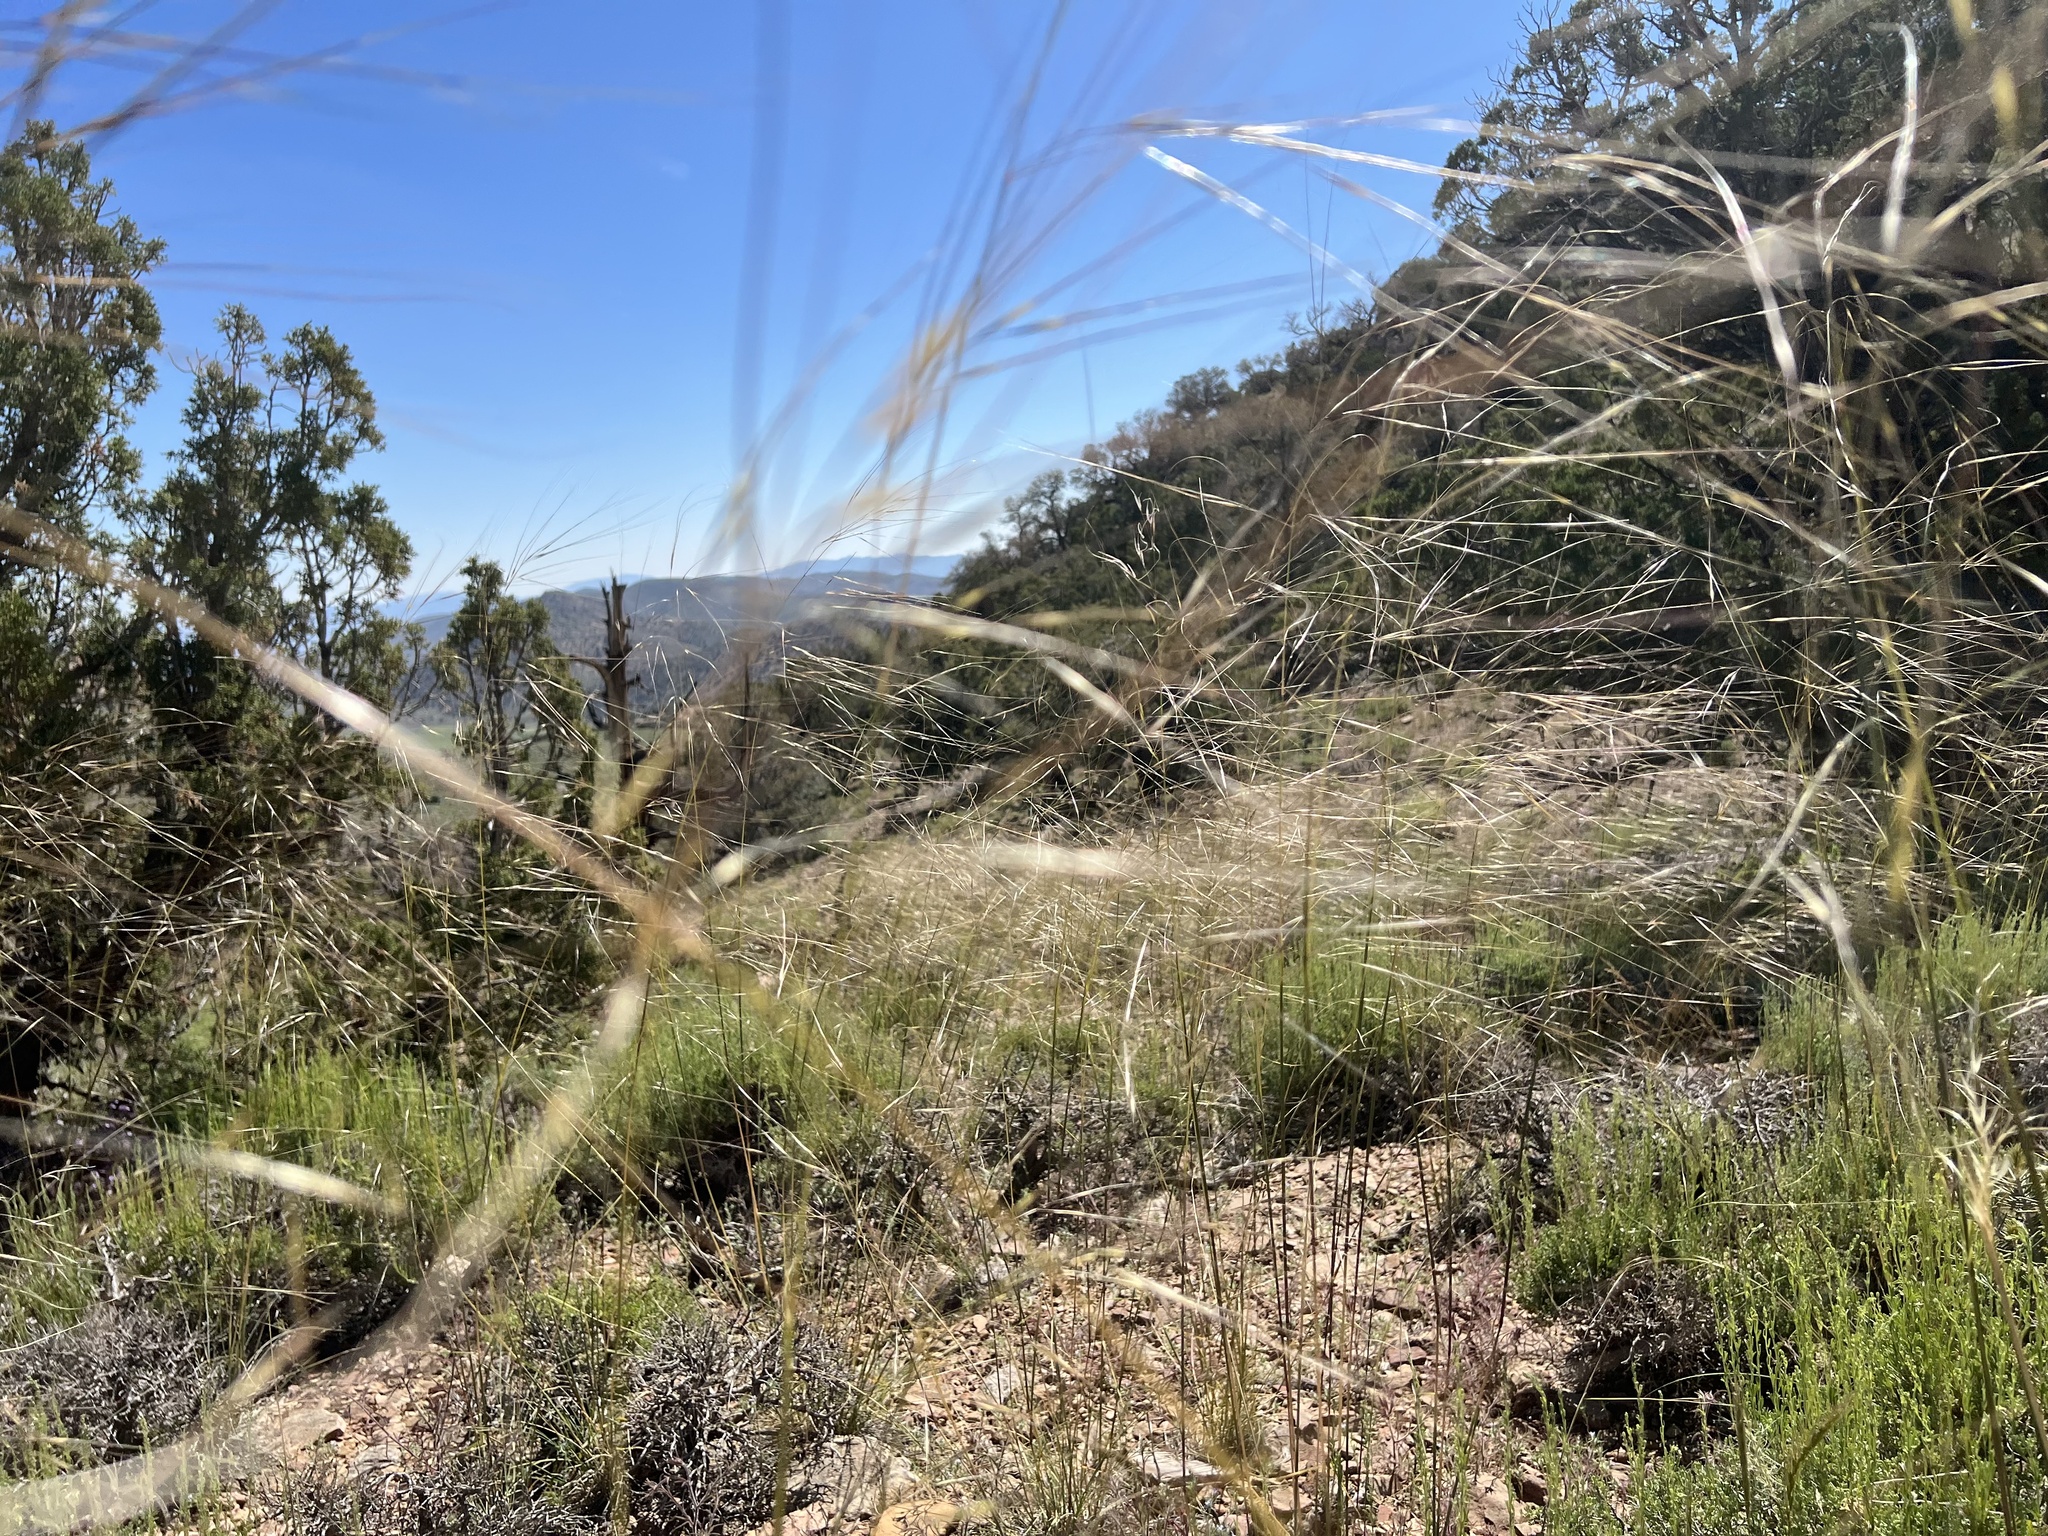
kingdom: Plantae
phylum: Tracheophyta
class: Liliopsida
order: Poales
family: Poaceae
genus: Hesperostipa
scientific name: Hesperostipa comata
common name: Needle-and-thread grass
